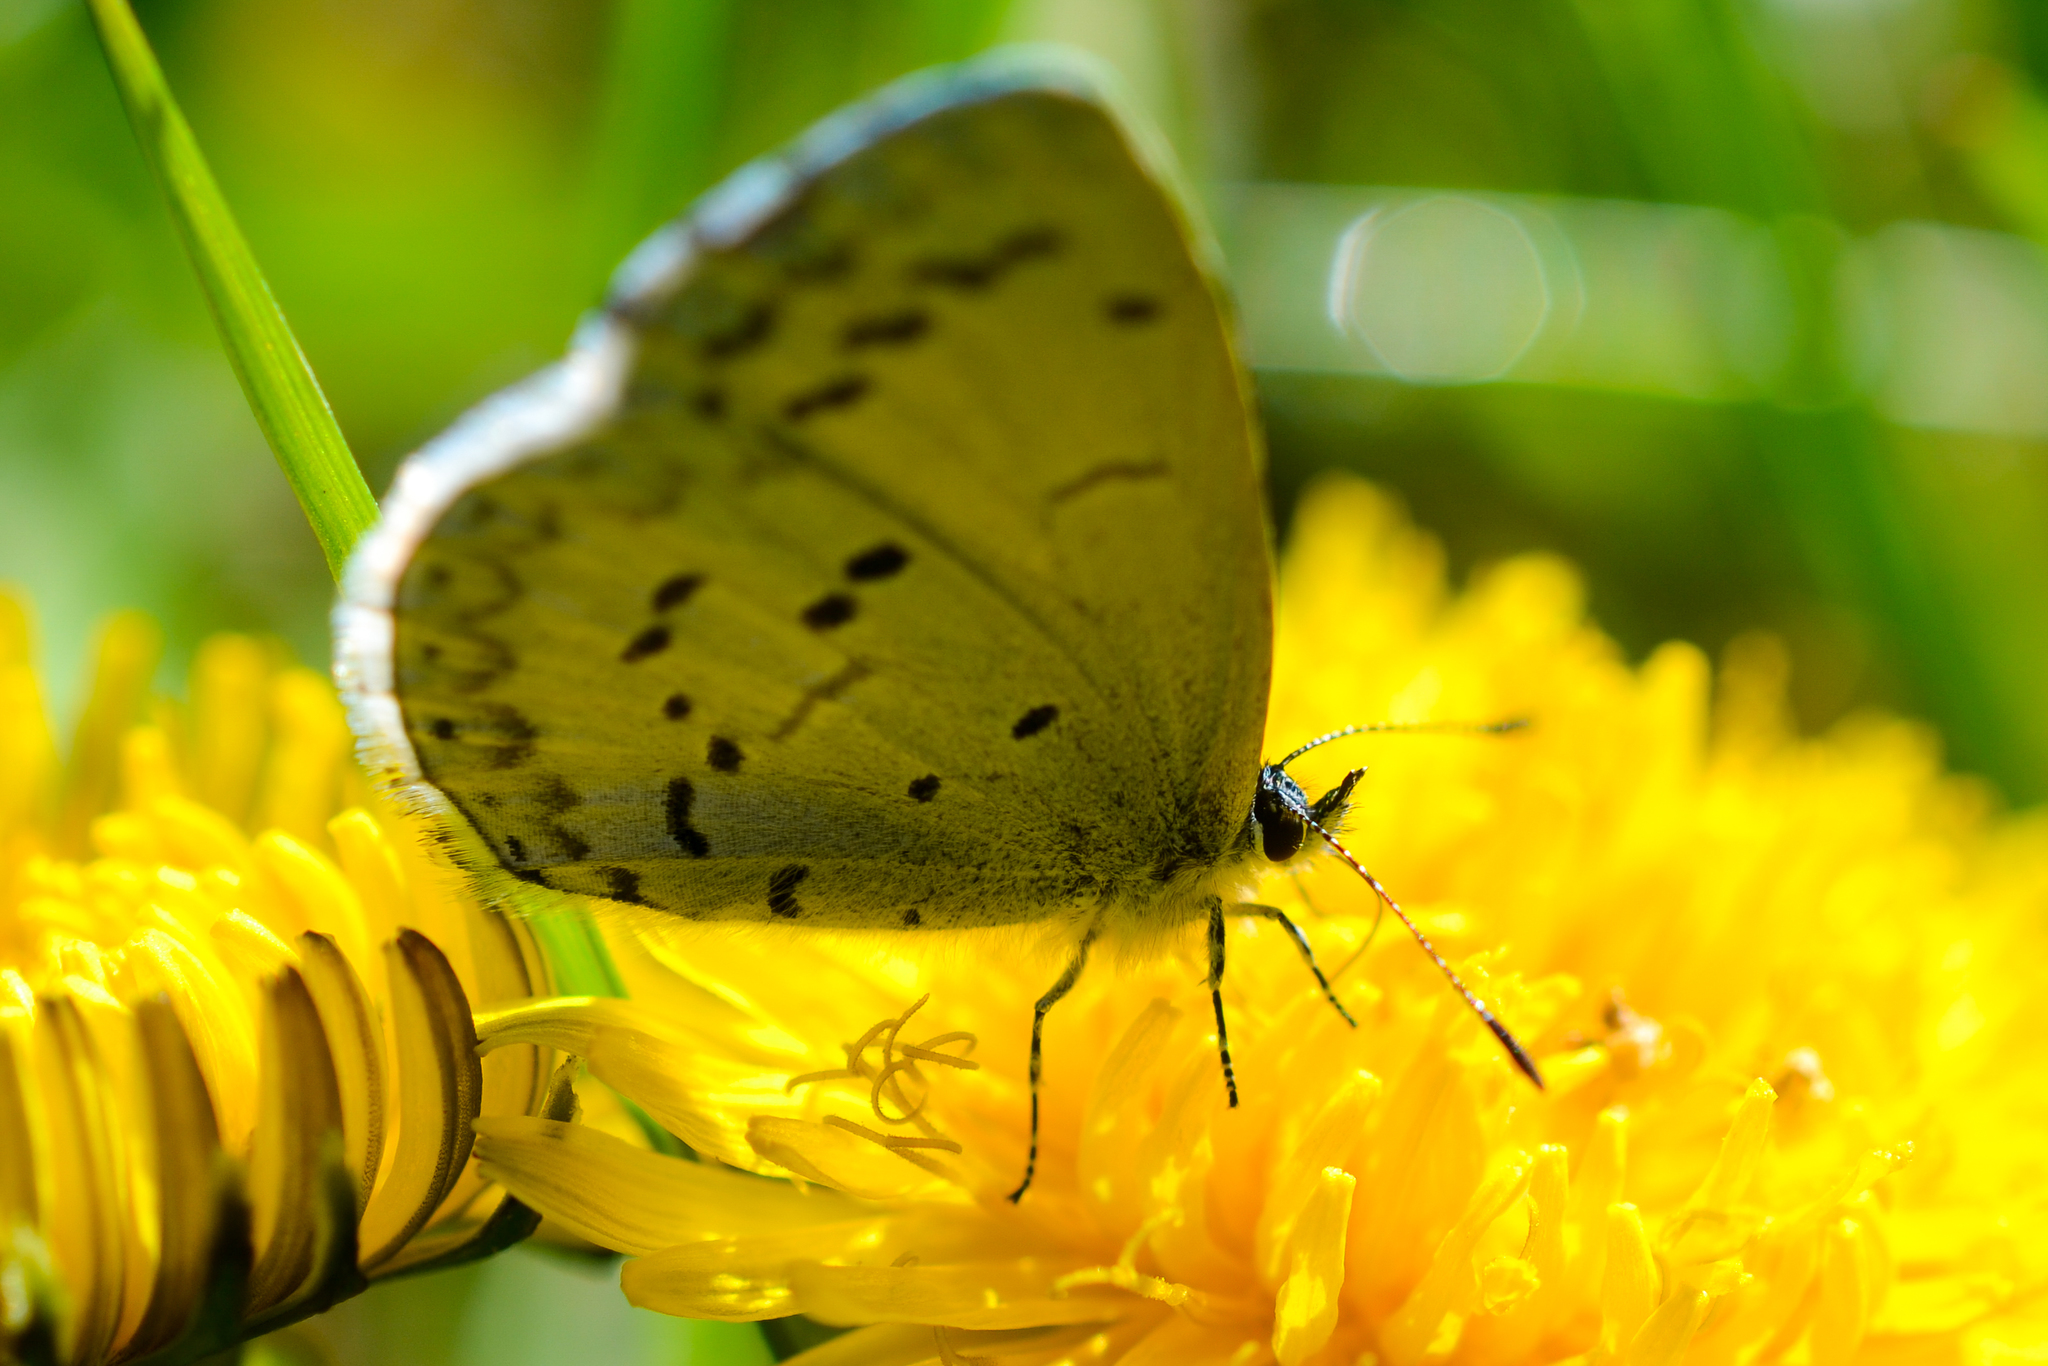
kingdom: Animalia
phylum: Arthropoda
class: Insecta
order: Lepidoptera
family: Lycaenidae
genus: Celastrina
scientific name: Celastrina ladon
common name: Spring azure
